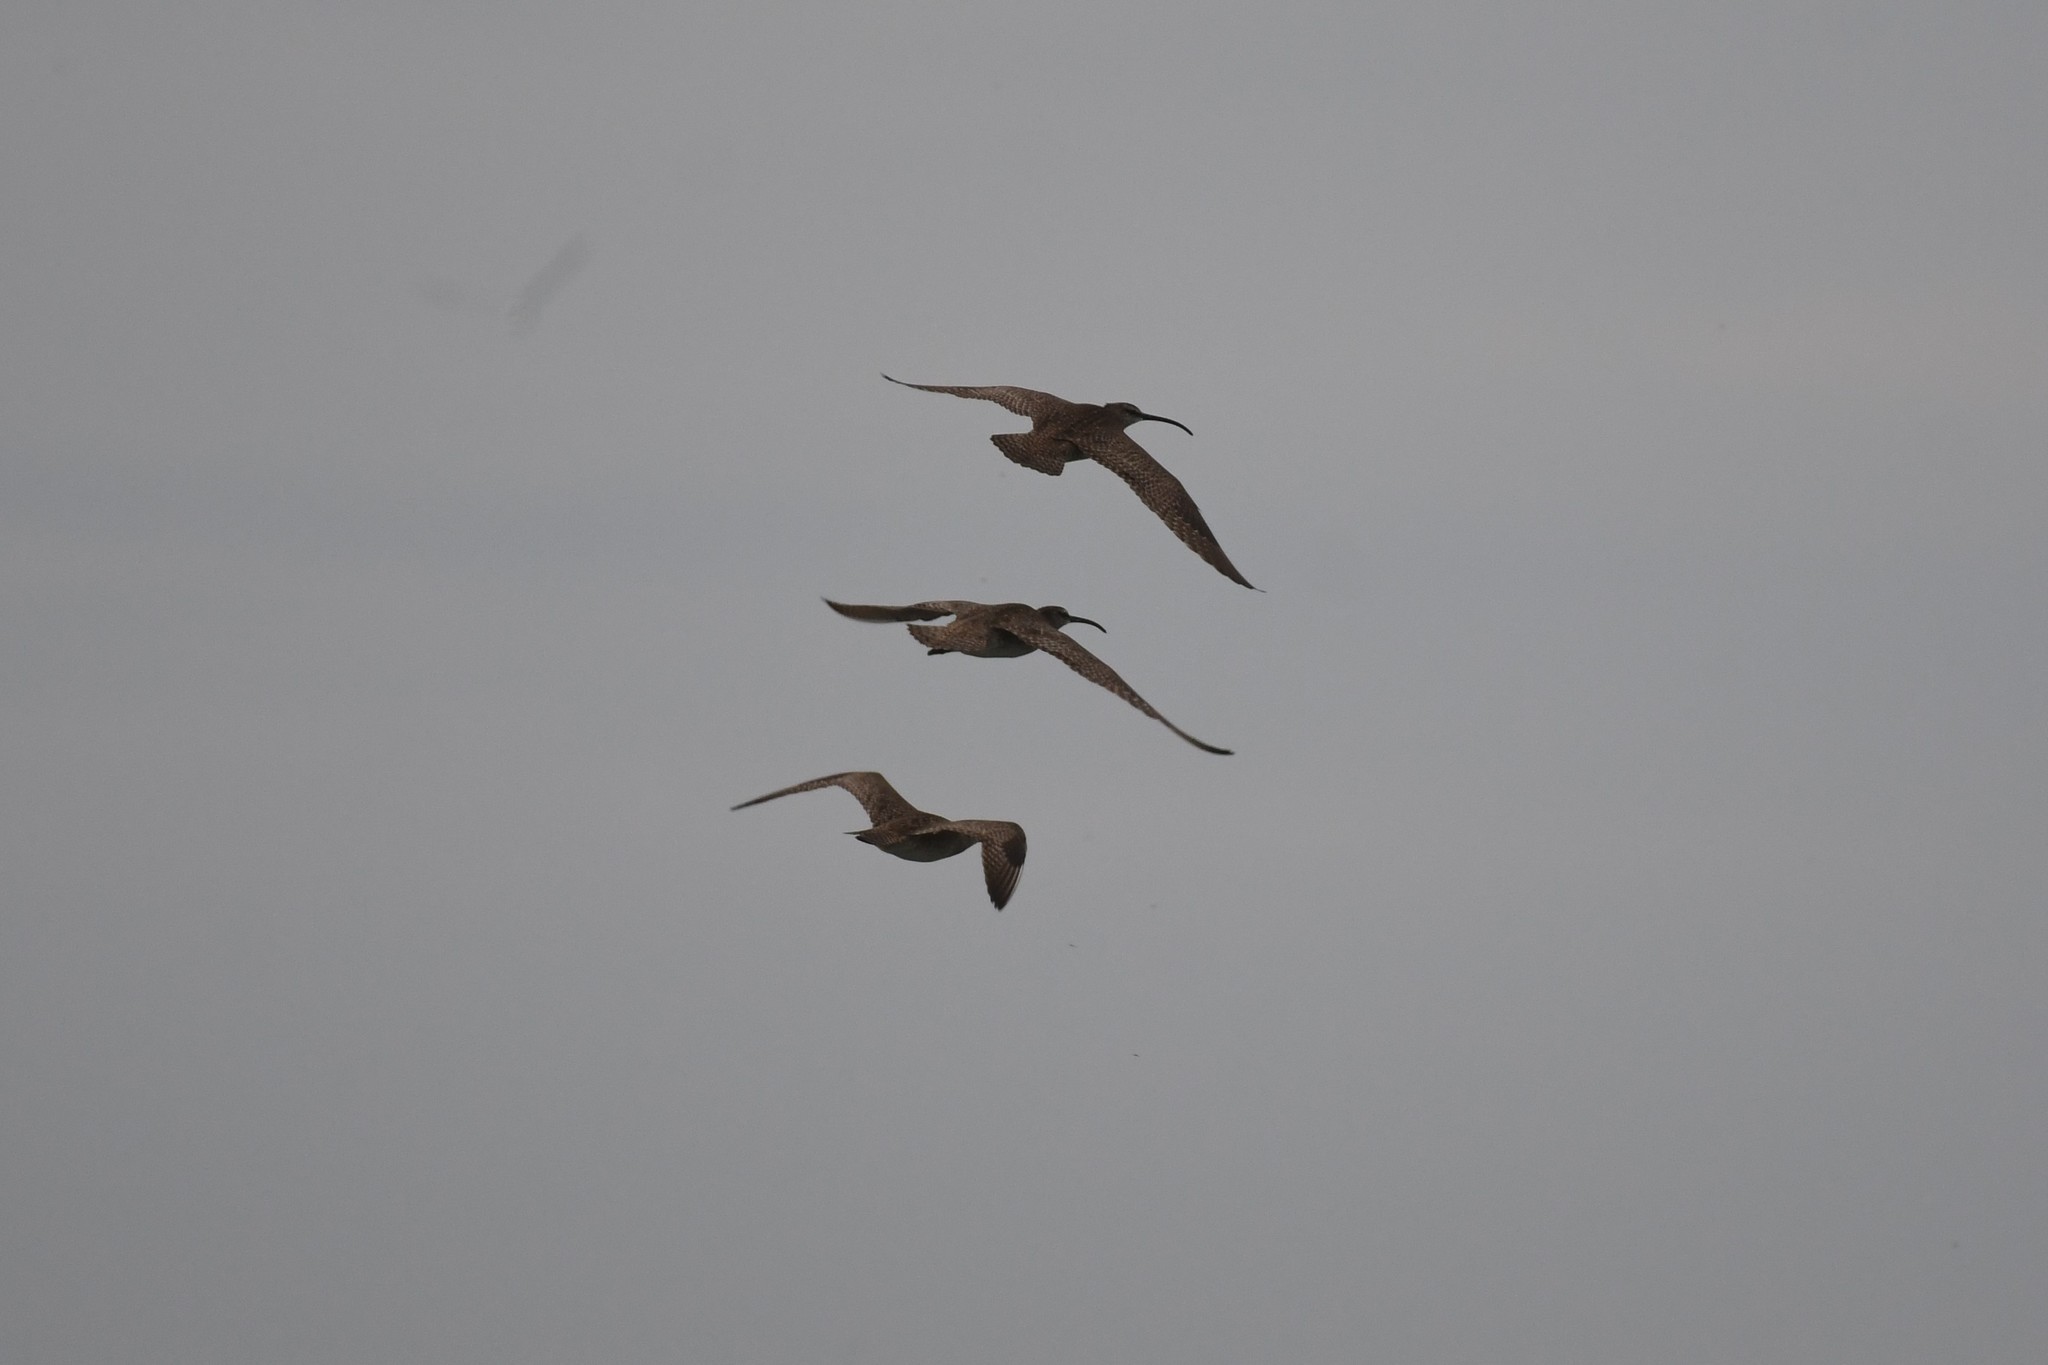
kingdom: Animalia
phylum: Chordata
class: Aves
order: Charadriiformes
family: Scolopacidae
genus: Numenius
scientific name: Numenius phaeopus
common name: Whimbrel
